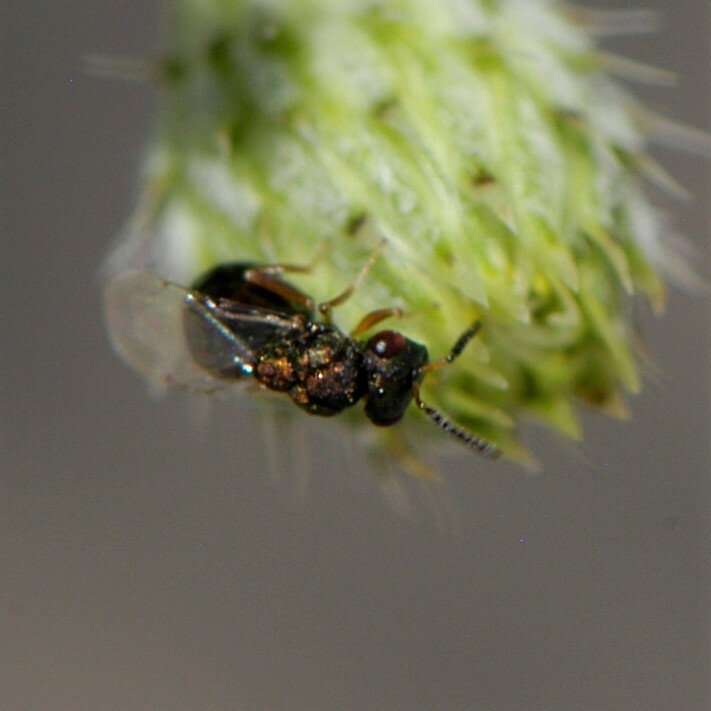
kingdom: Animalia
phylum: Arthropoda
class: Insecta
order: Hymenoptera
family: Eucharitidae
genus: Orasema
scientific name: Orasema
